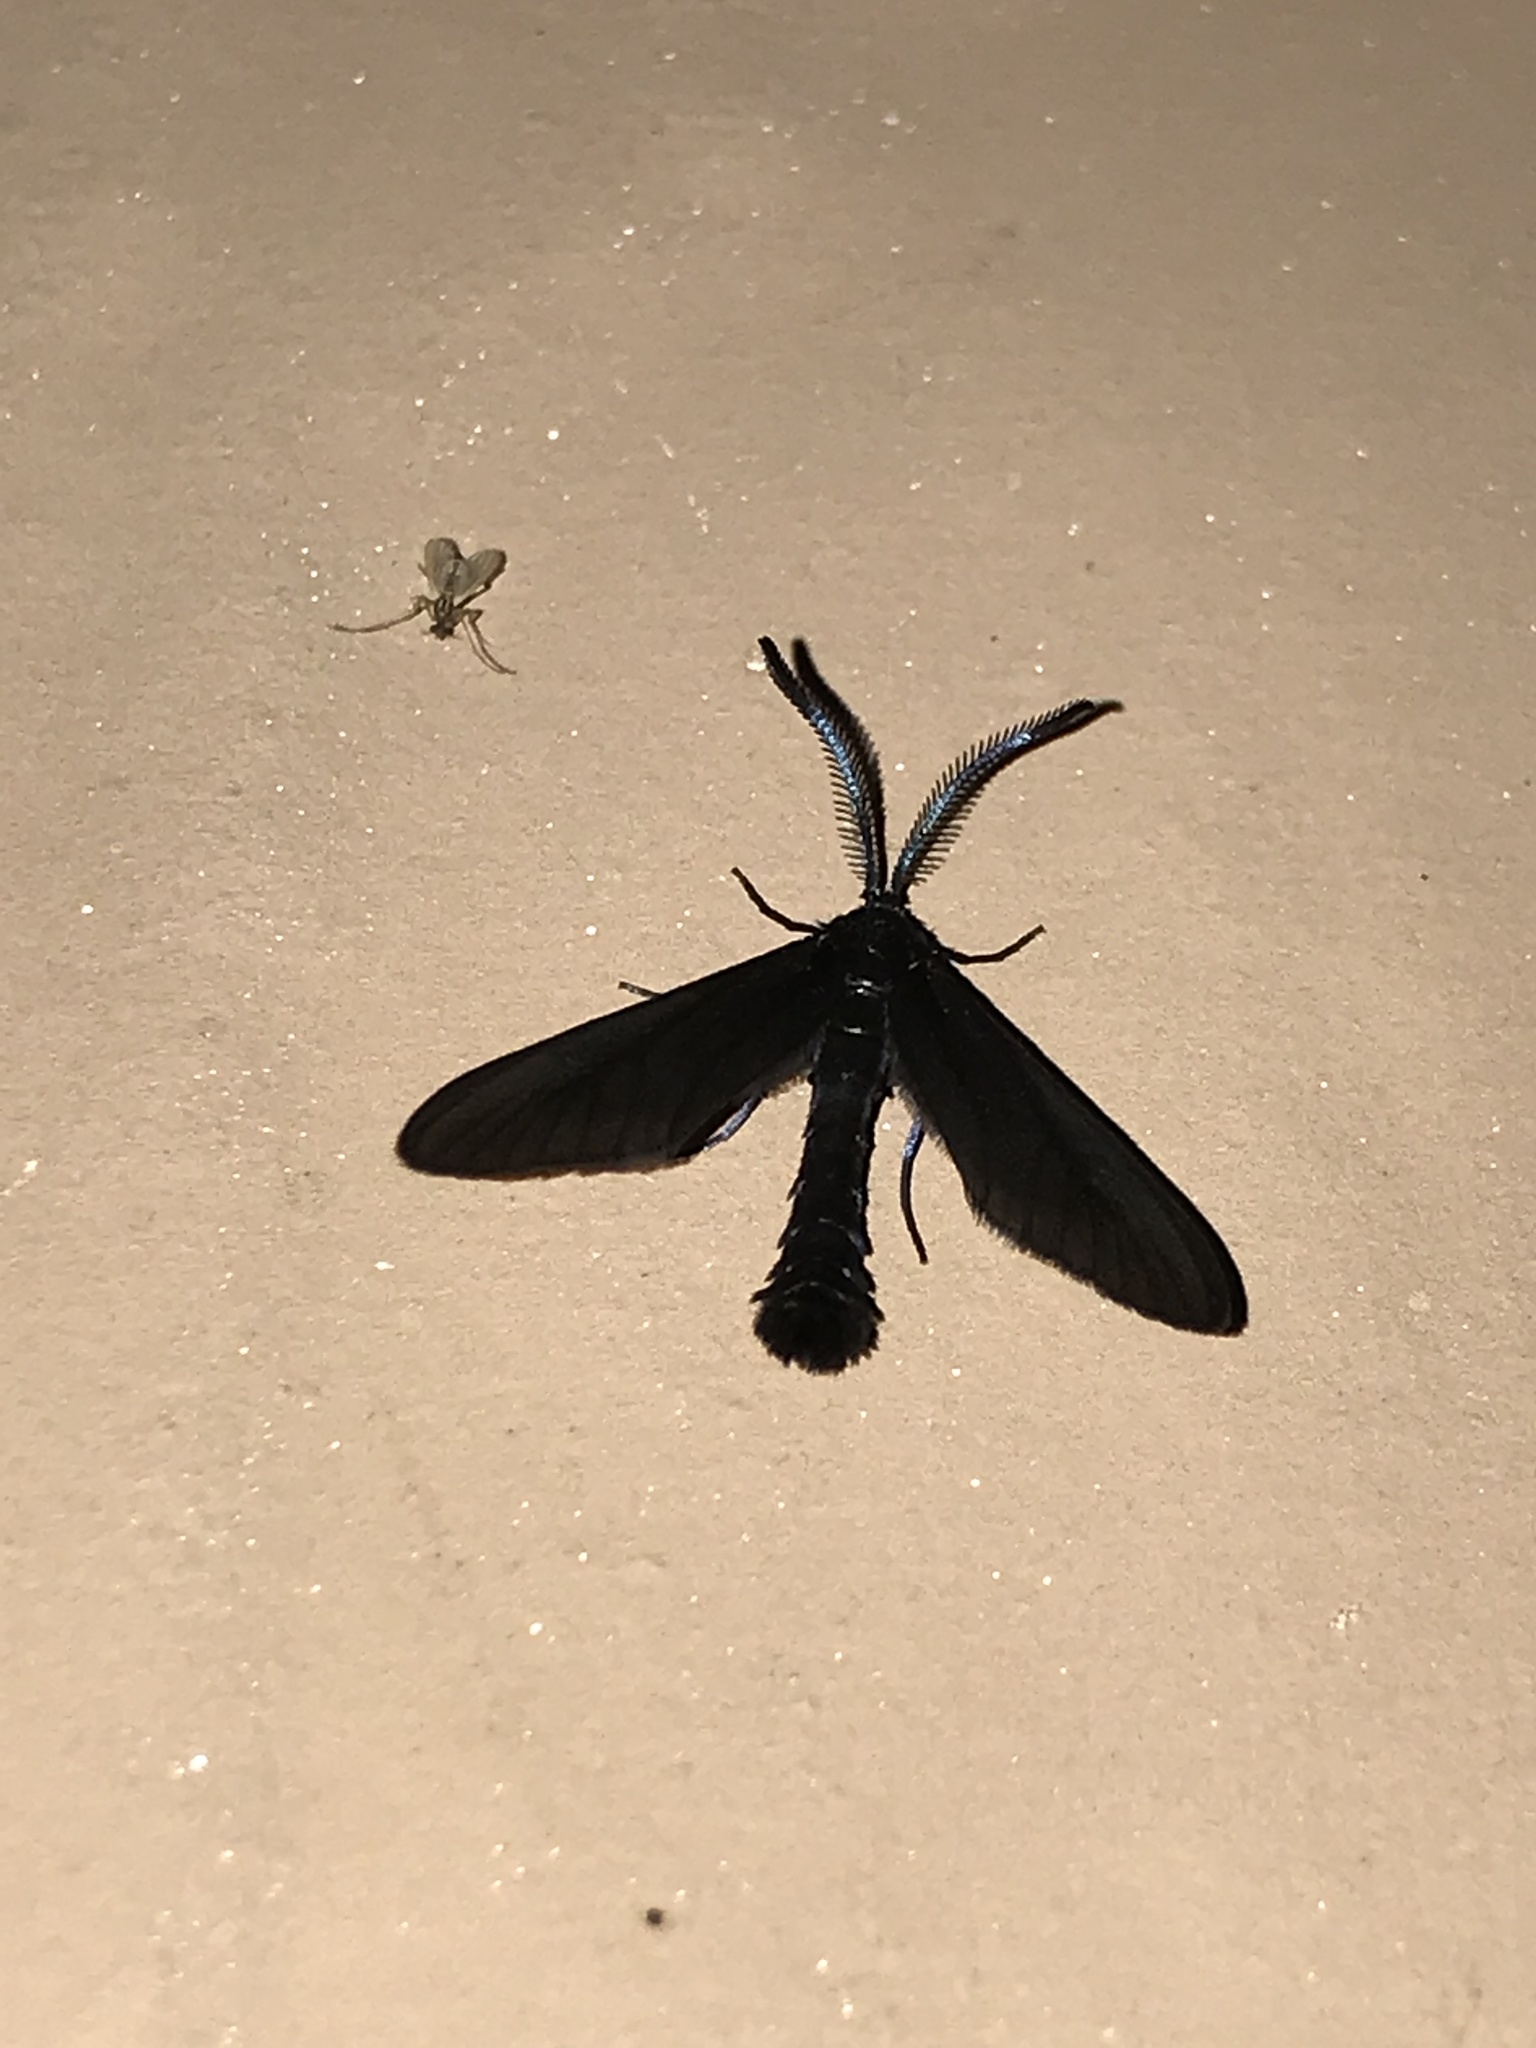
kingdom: Animalia
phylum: Arthropoda
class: Insecta
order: Lepidoptera
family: Zygaenidae
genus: Harrisina
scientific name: Harrisina coracina
